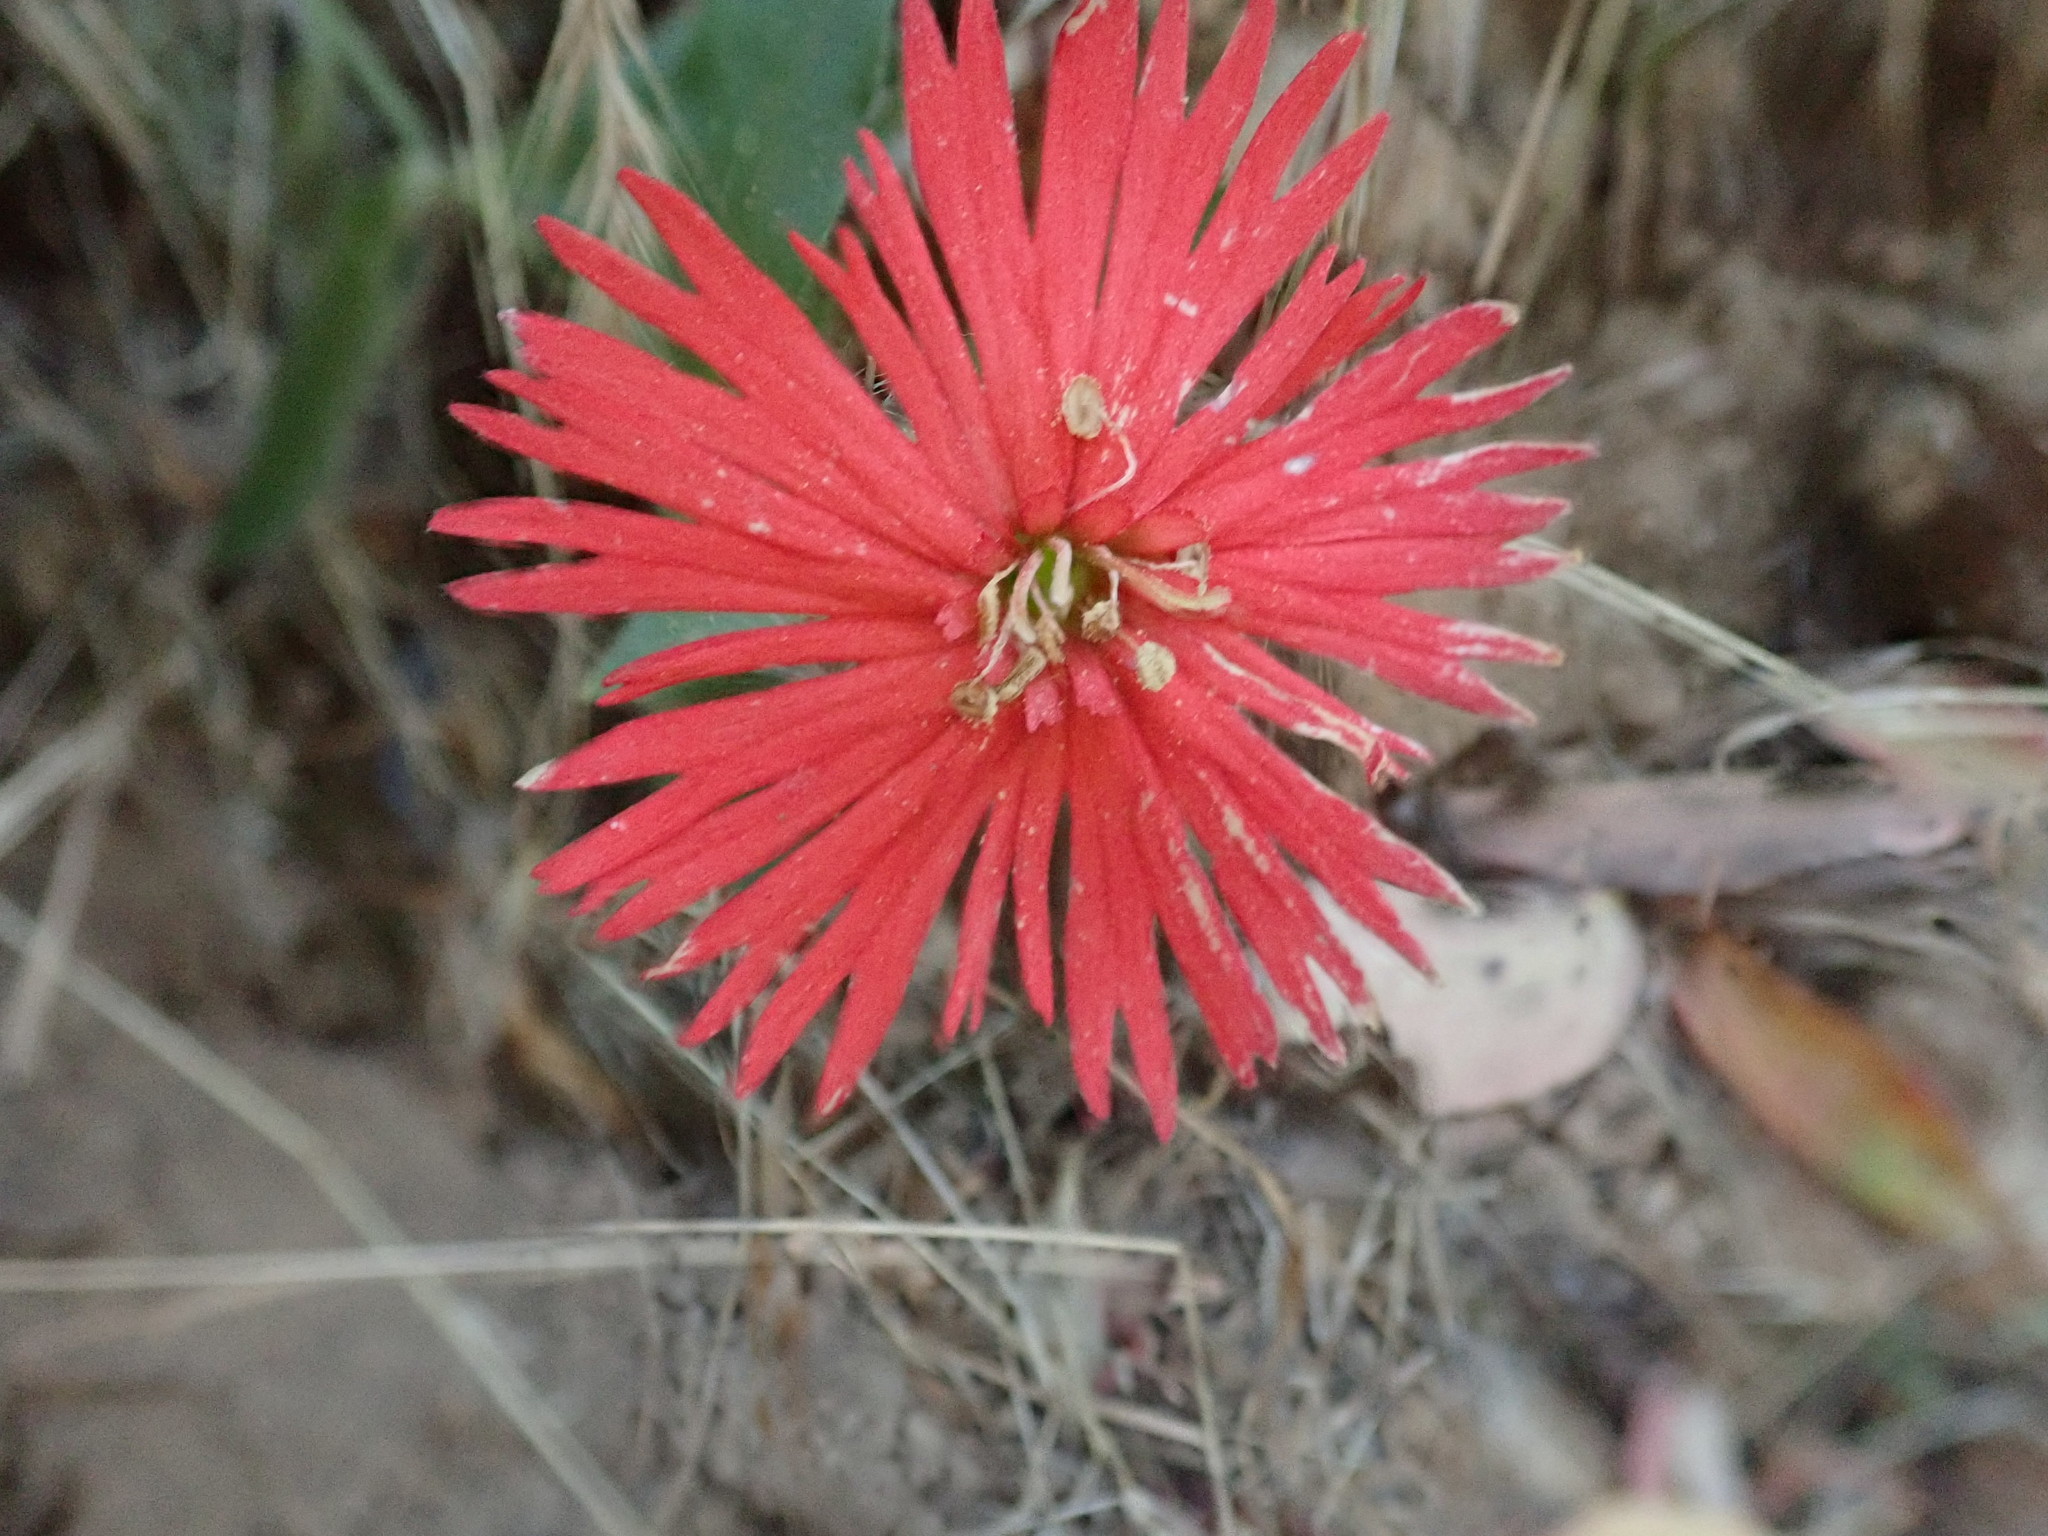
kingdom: Plantae
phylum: Tracheophyta
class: Magnoliopsida
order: Caryophyllales
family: Caryophyllaceae
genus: Silene
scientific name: Silene laciniata
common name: Indian-pink
